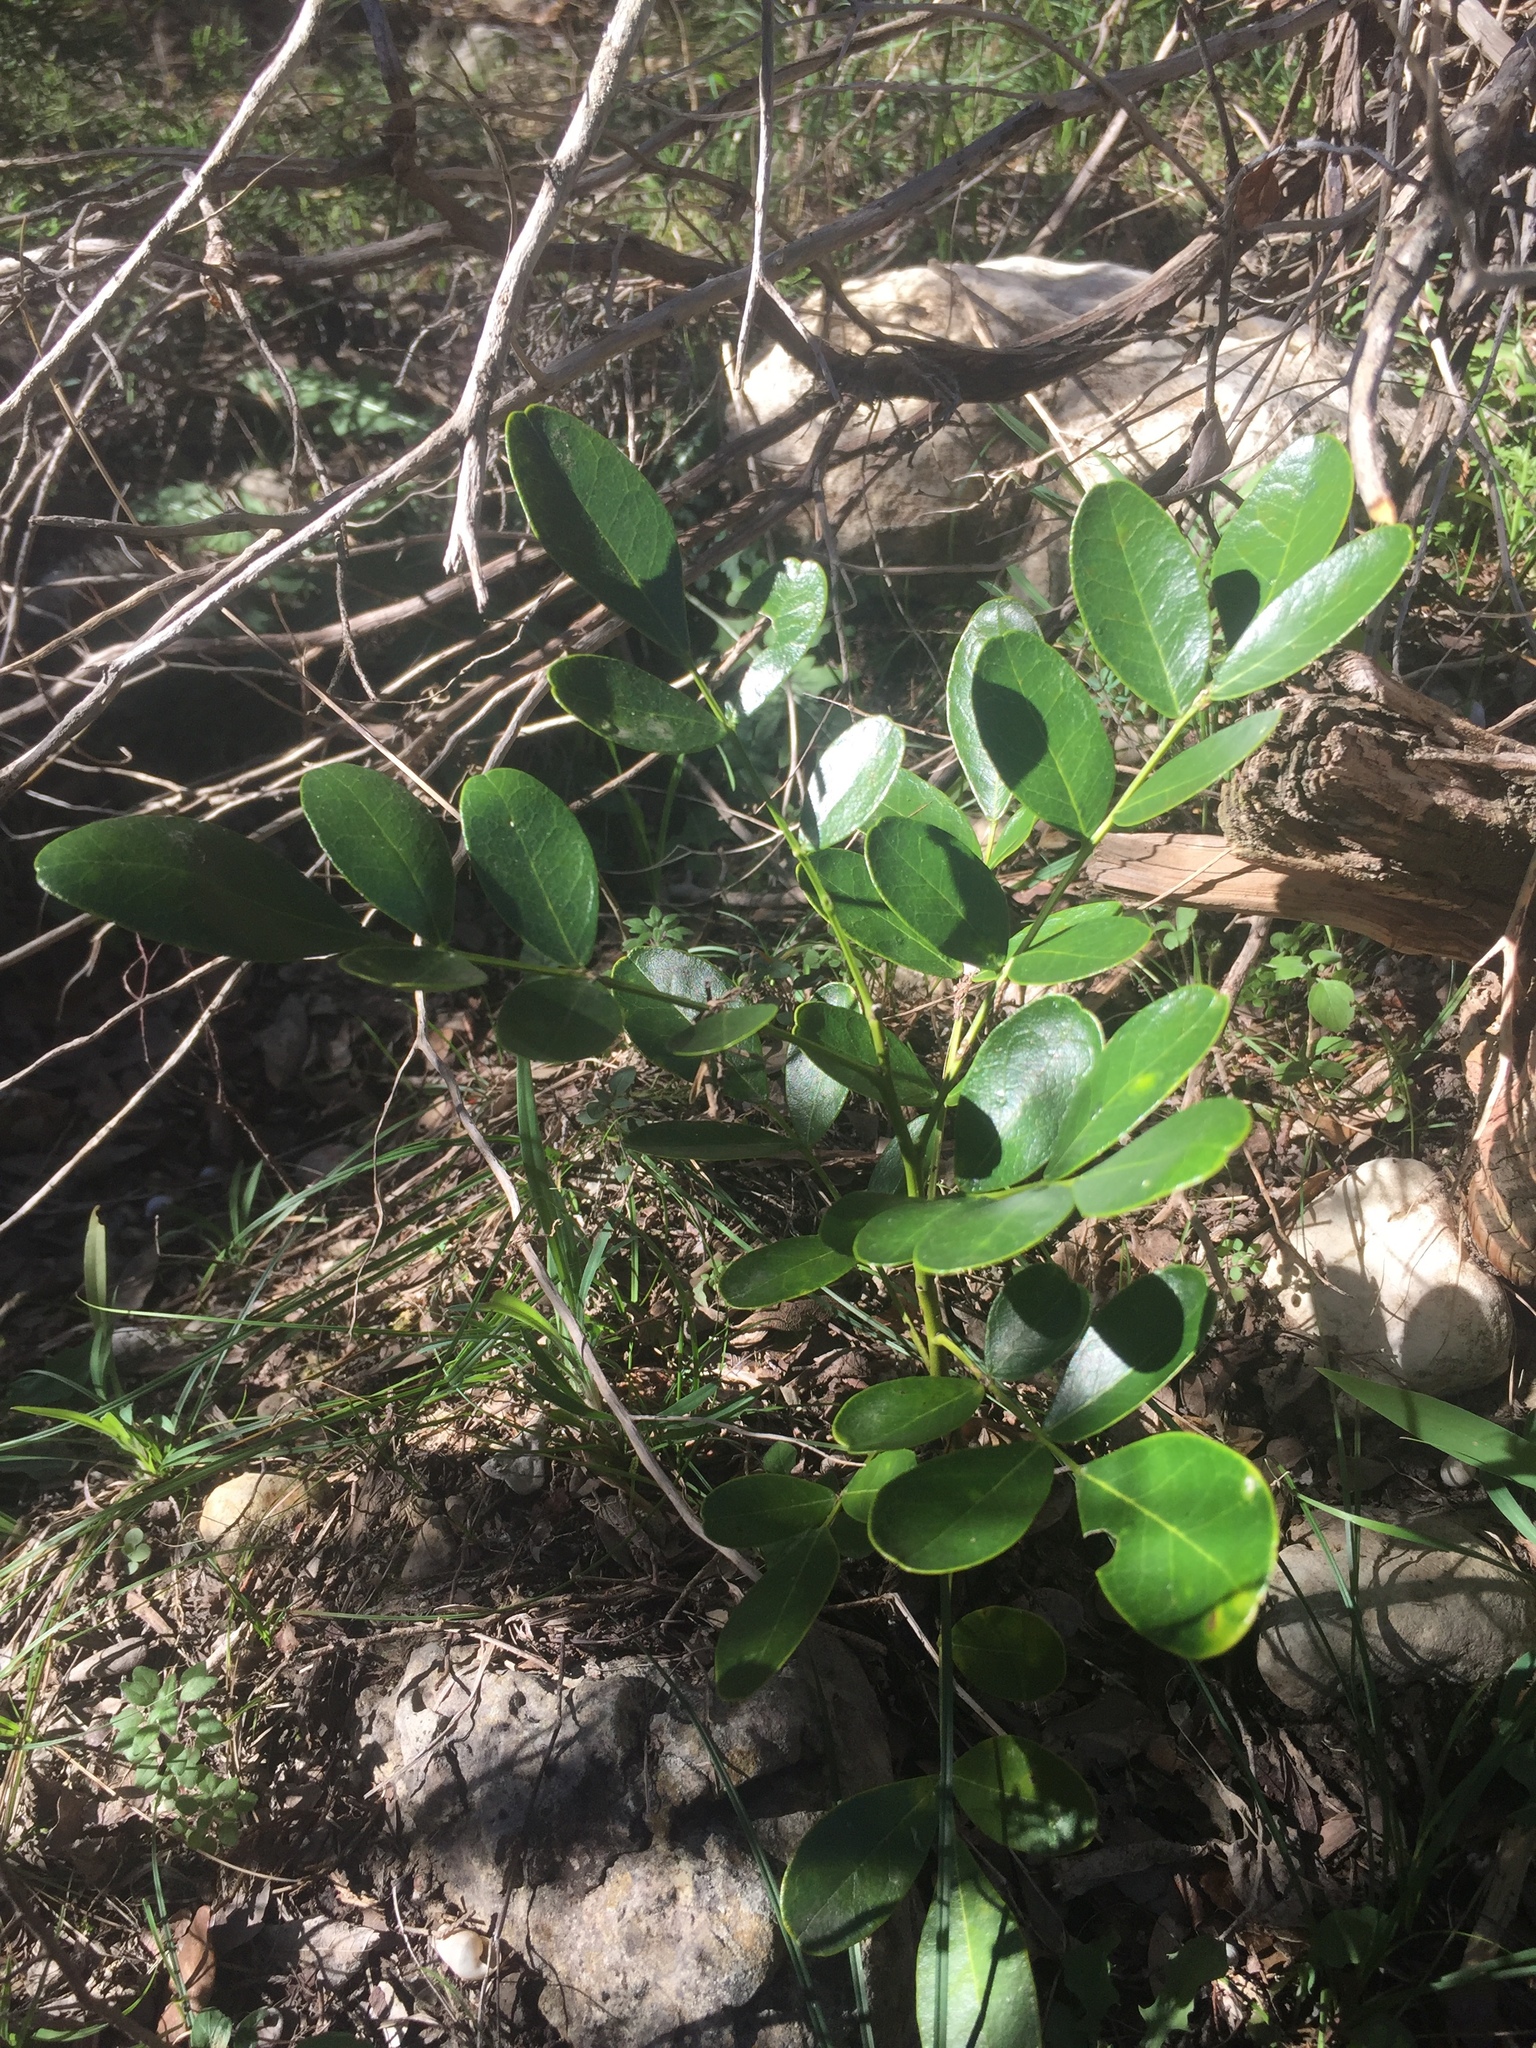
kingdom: Plantae
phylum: Tracheophyta
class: Magnoliopsida
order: Fabales
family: Fabaceae
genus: Dermatophyllum
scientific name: Dermatophyllum secundiflorum
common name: Texas-mountain-laurel
